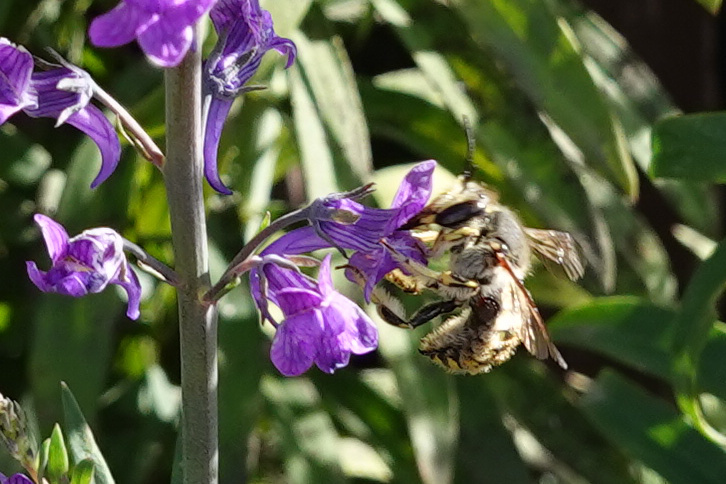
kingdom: Animalia
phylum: Arthropoda
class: Insecta
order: Hymenoptera
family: Megachilidae
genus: Anthidium
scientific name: Anthidium manicatum
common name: Wool carder bee
